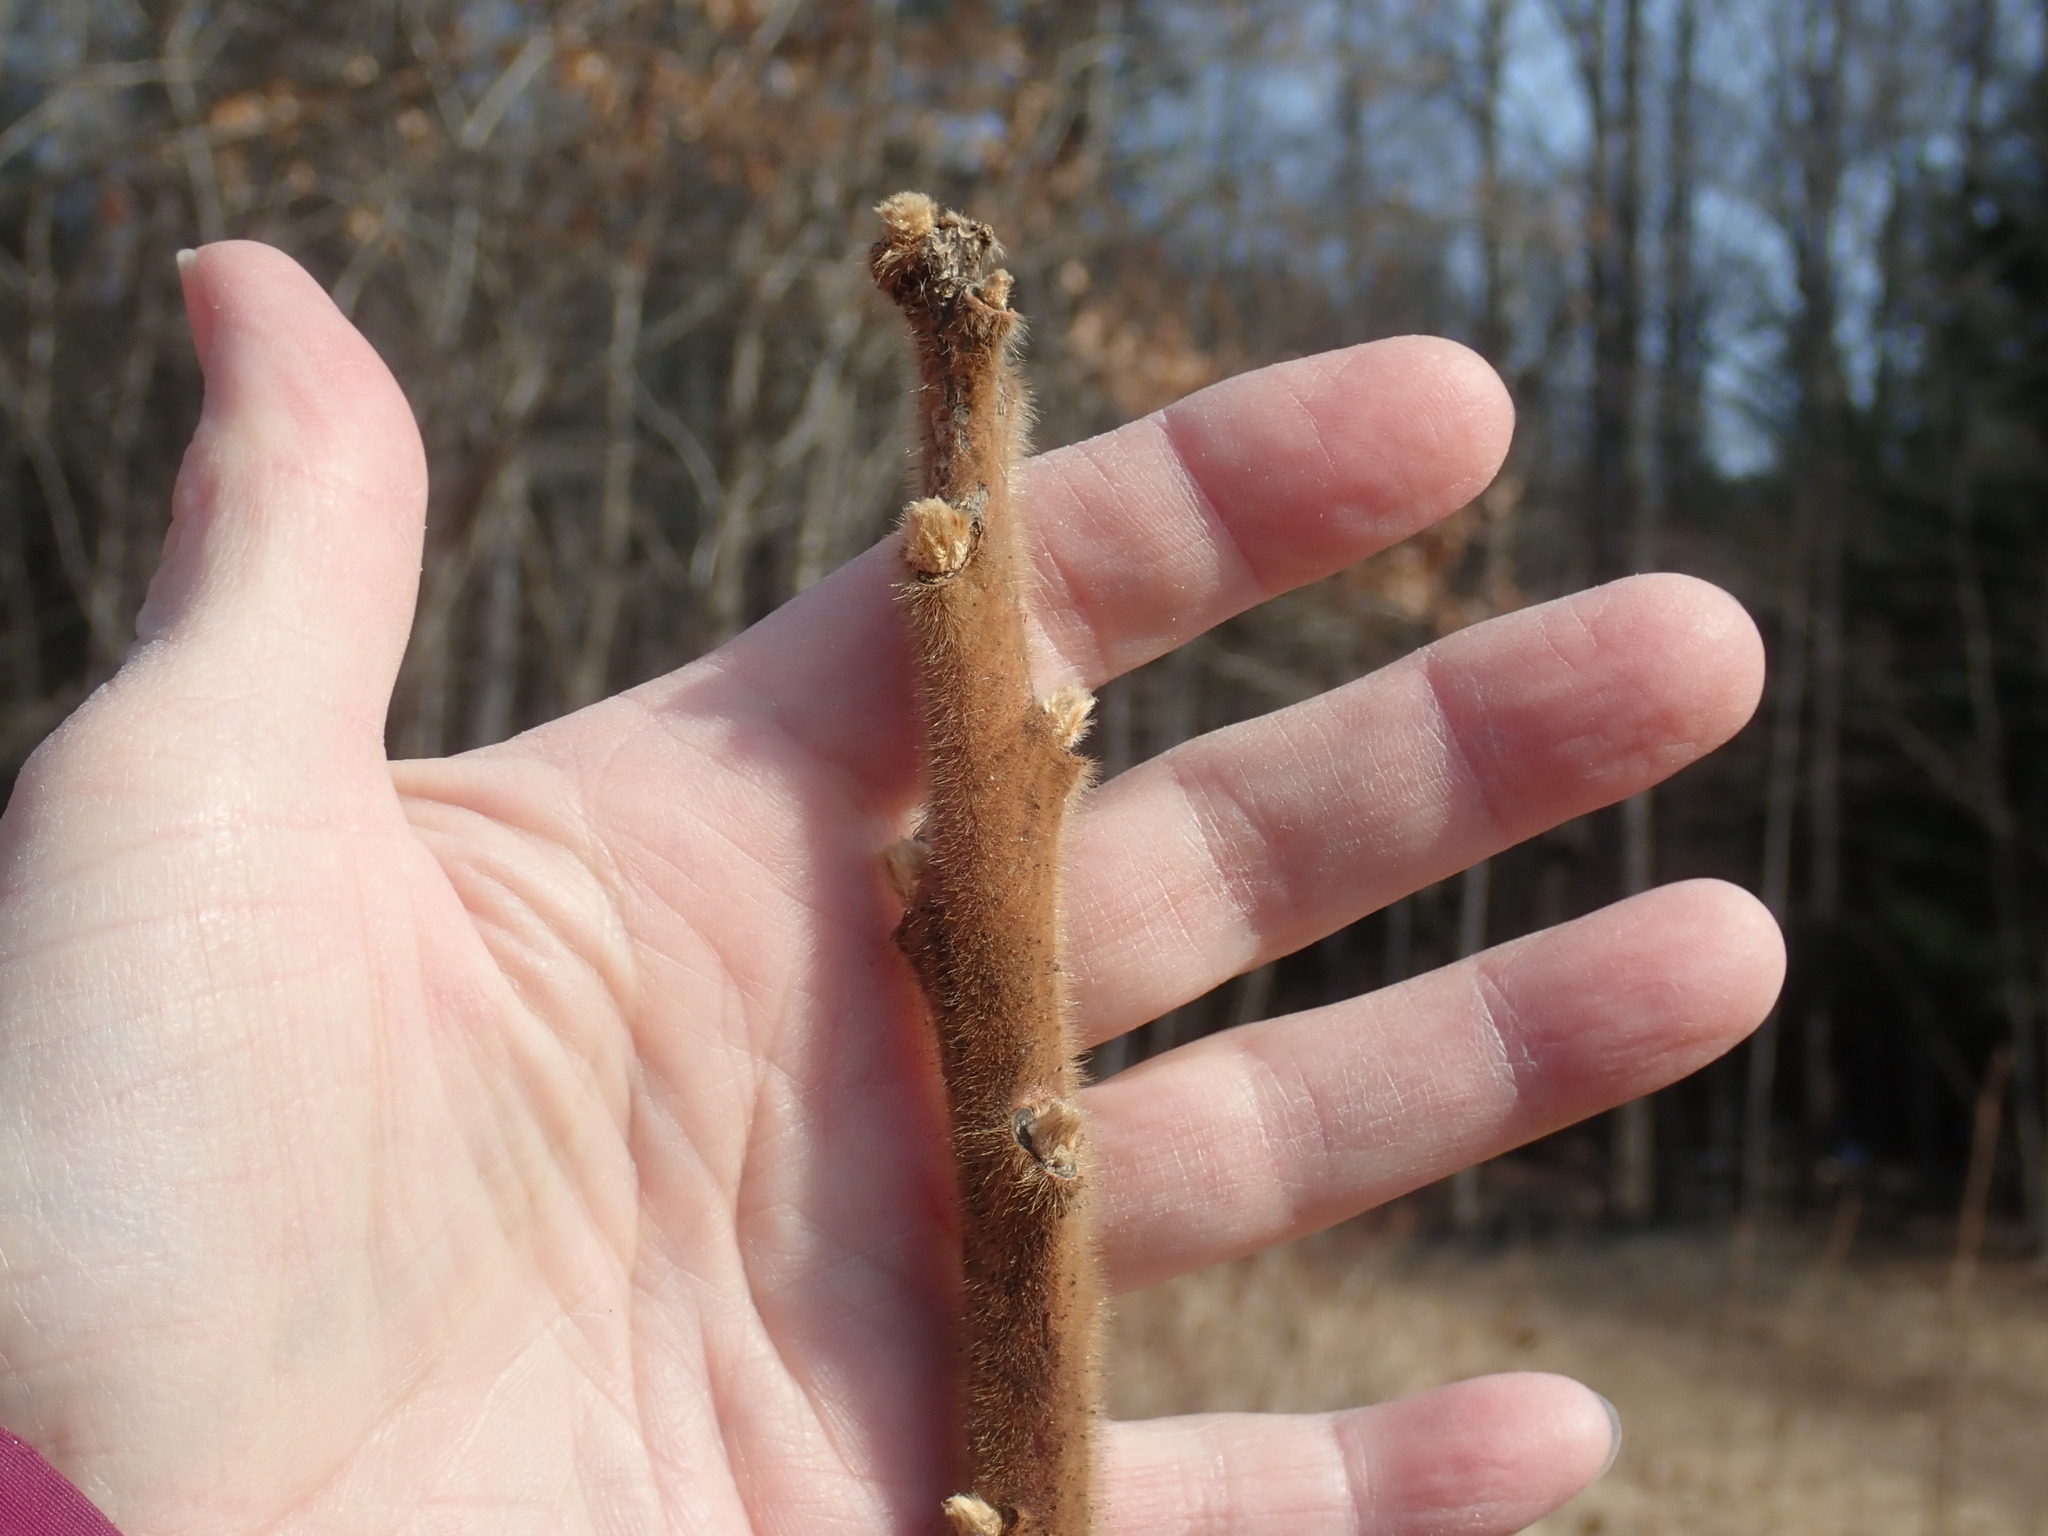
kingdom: Plantae
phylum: Tracheophyta
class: Magnoliopsida
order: Sapindales
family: Anacardiaceae
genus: Rhus
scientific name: Rhus typhina
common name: Staghorn sumac
